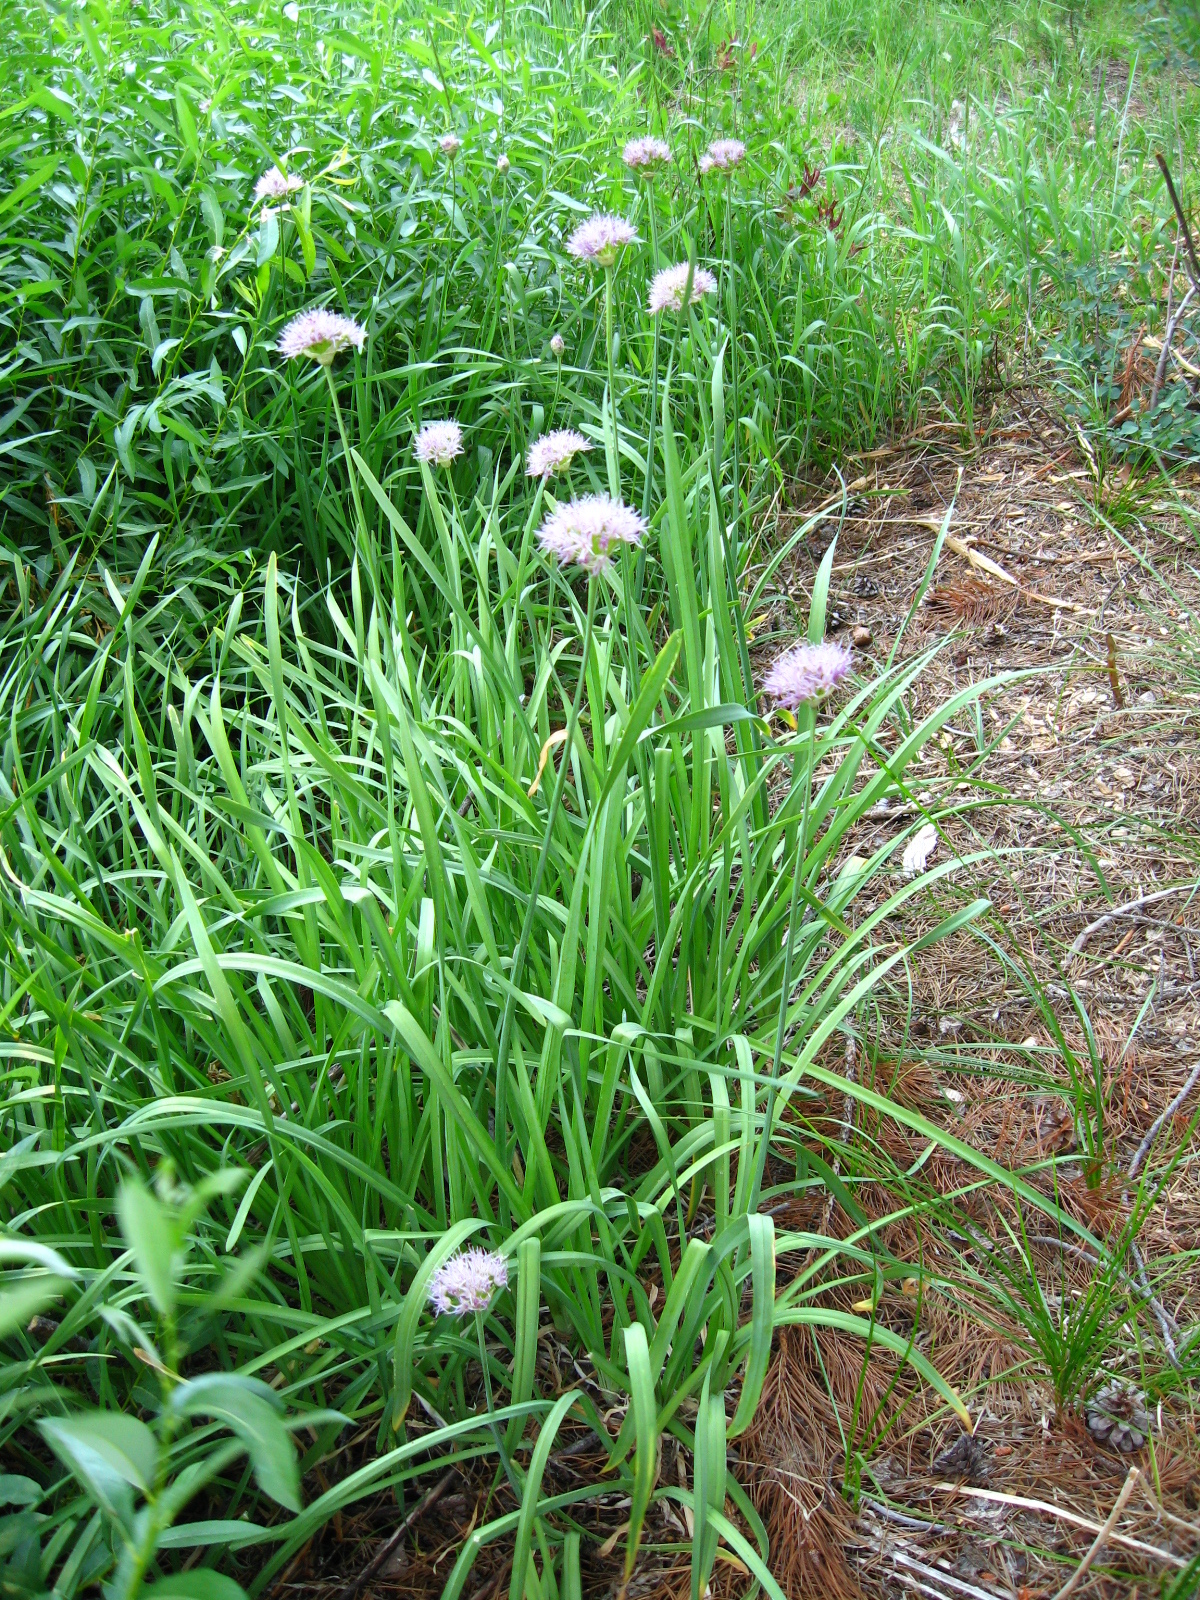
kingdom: Plantae
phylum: Tracheophyta
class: Liliopsida
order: Asparagales
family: Amaryllidaceae
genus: Allium
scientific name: Allium validum
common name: Pacific mountain onion
